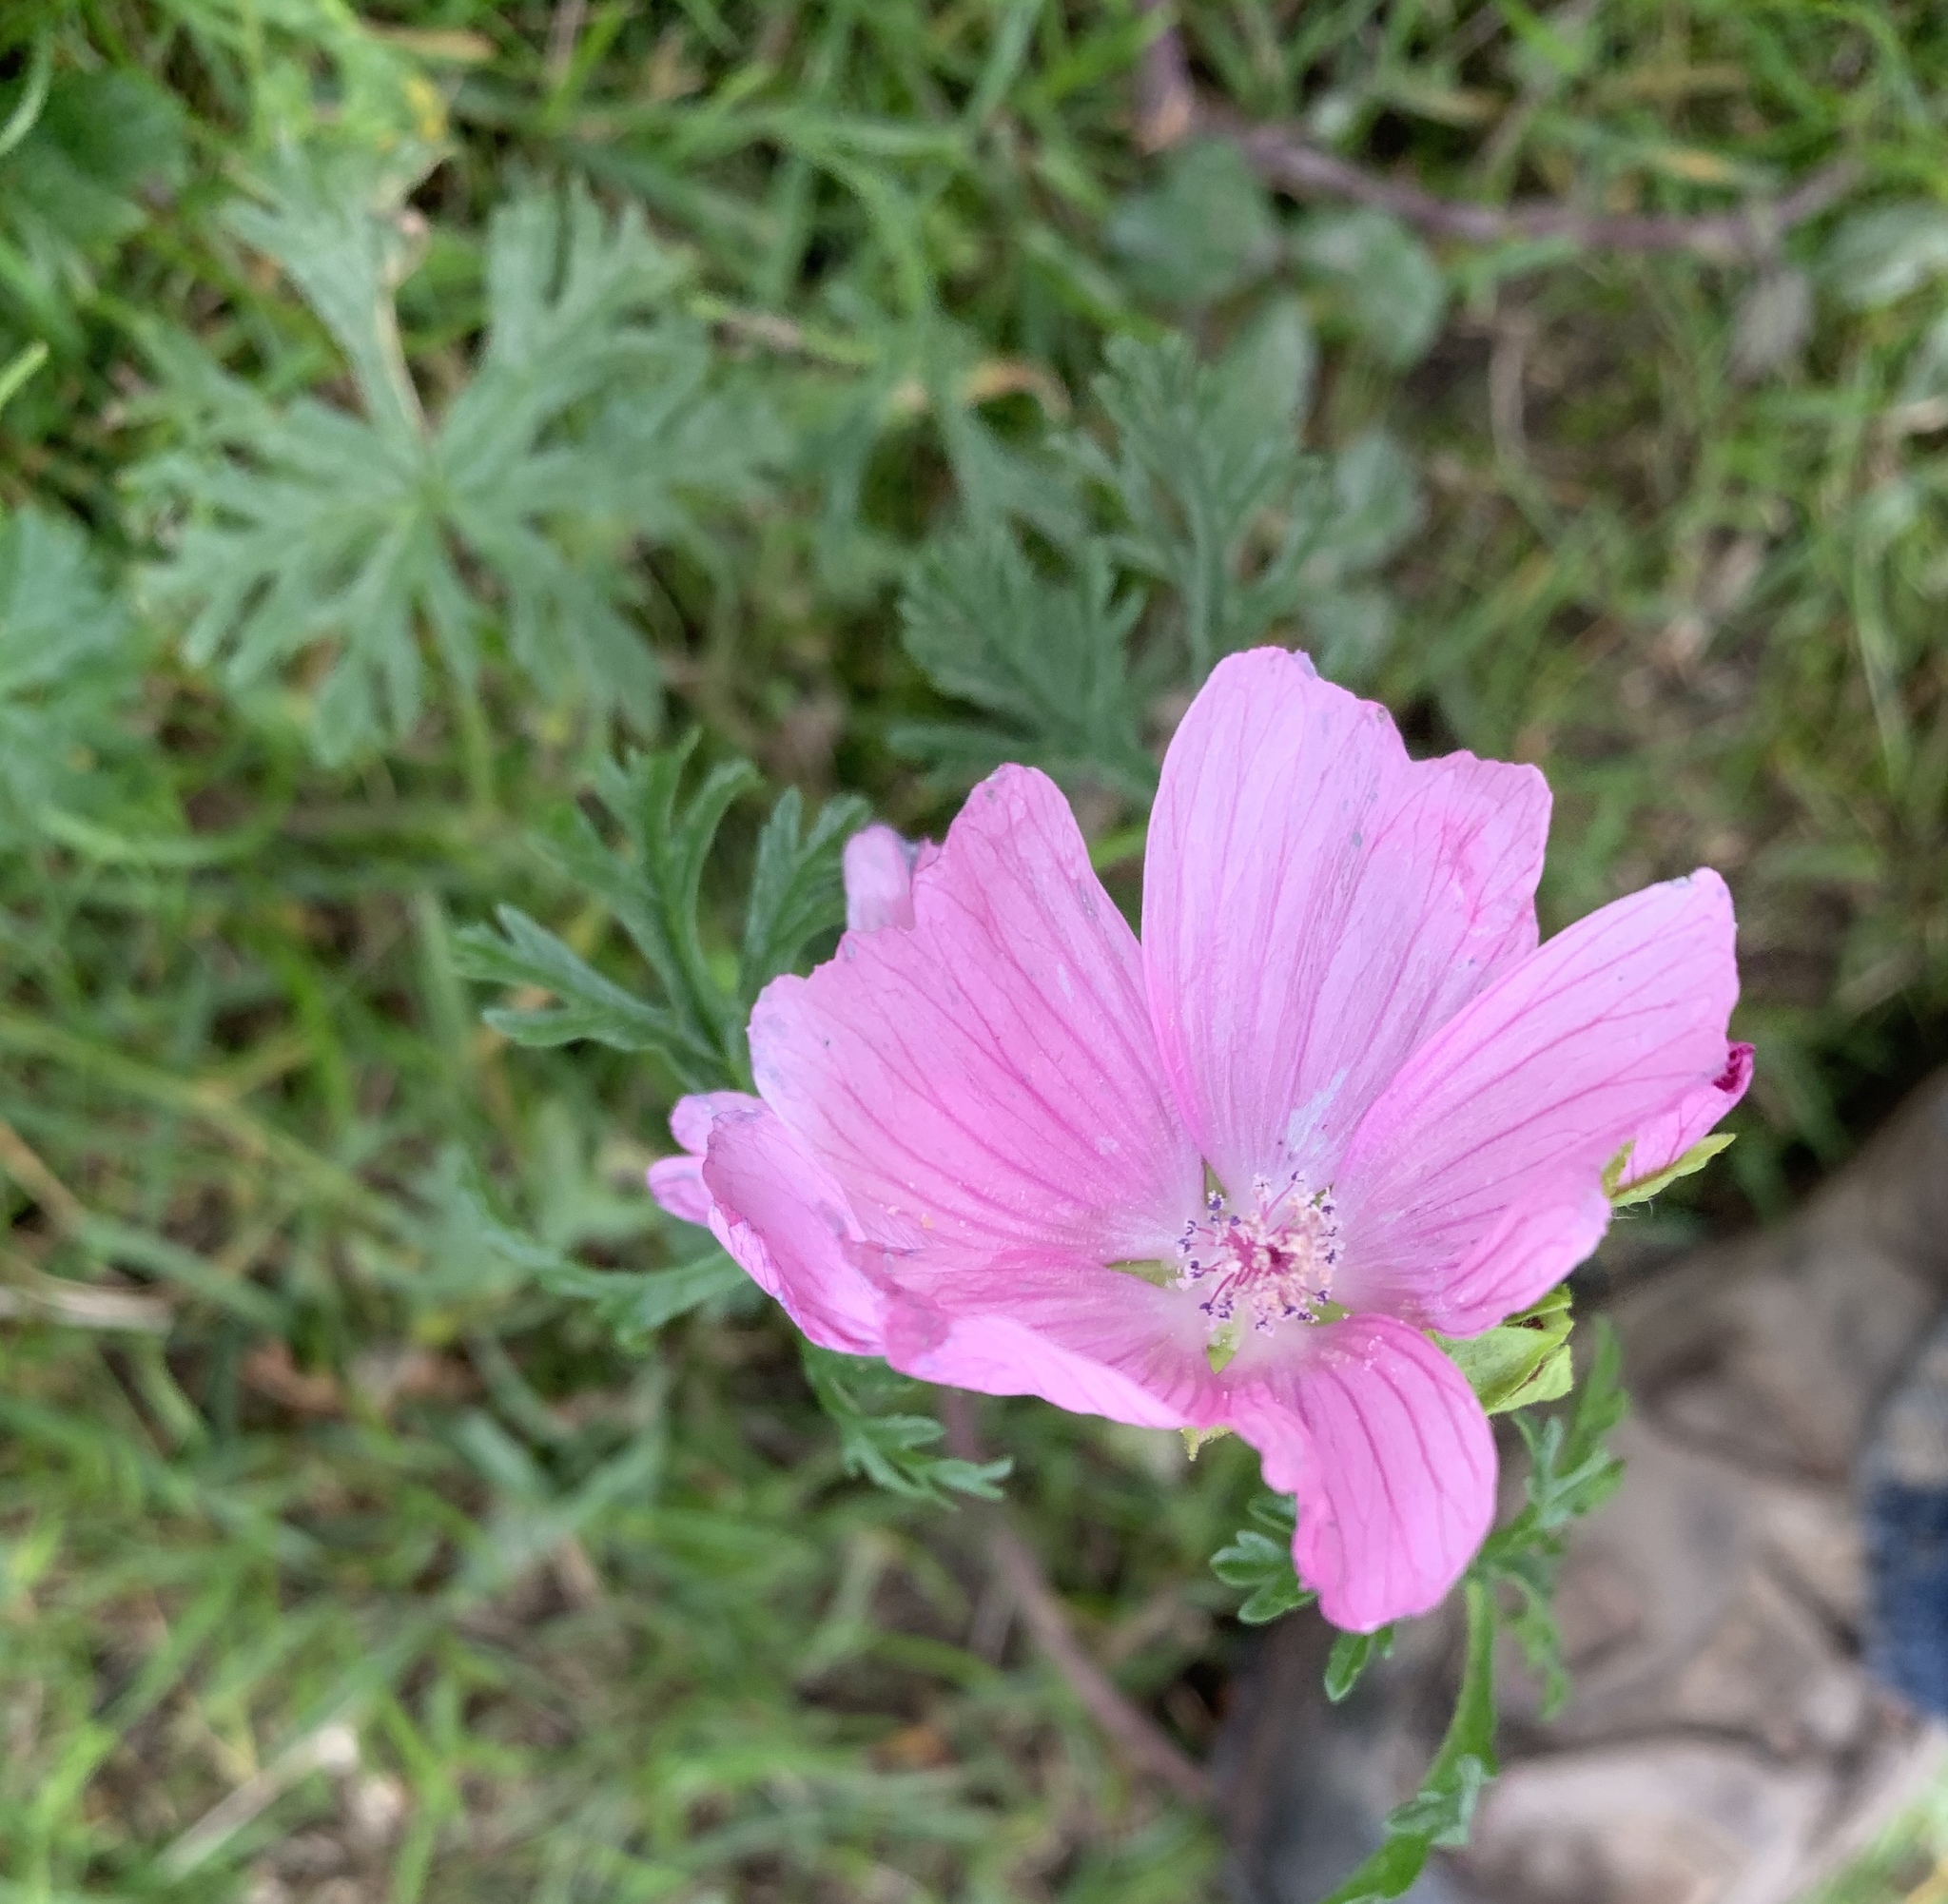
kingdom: Plantae
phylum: Tracheophyta
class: Magnoliopsida
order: Malvales
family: Malvaceae
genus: Malva
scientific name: Malva moschata
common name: Musk mallow
